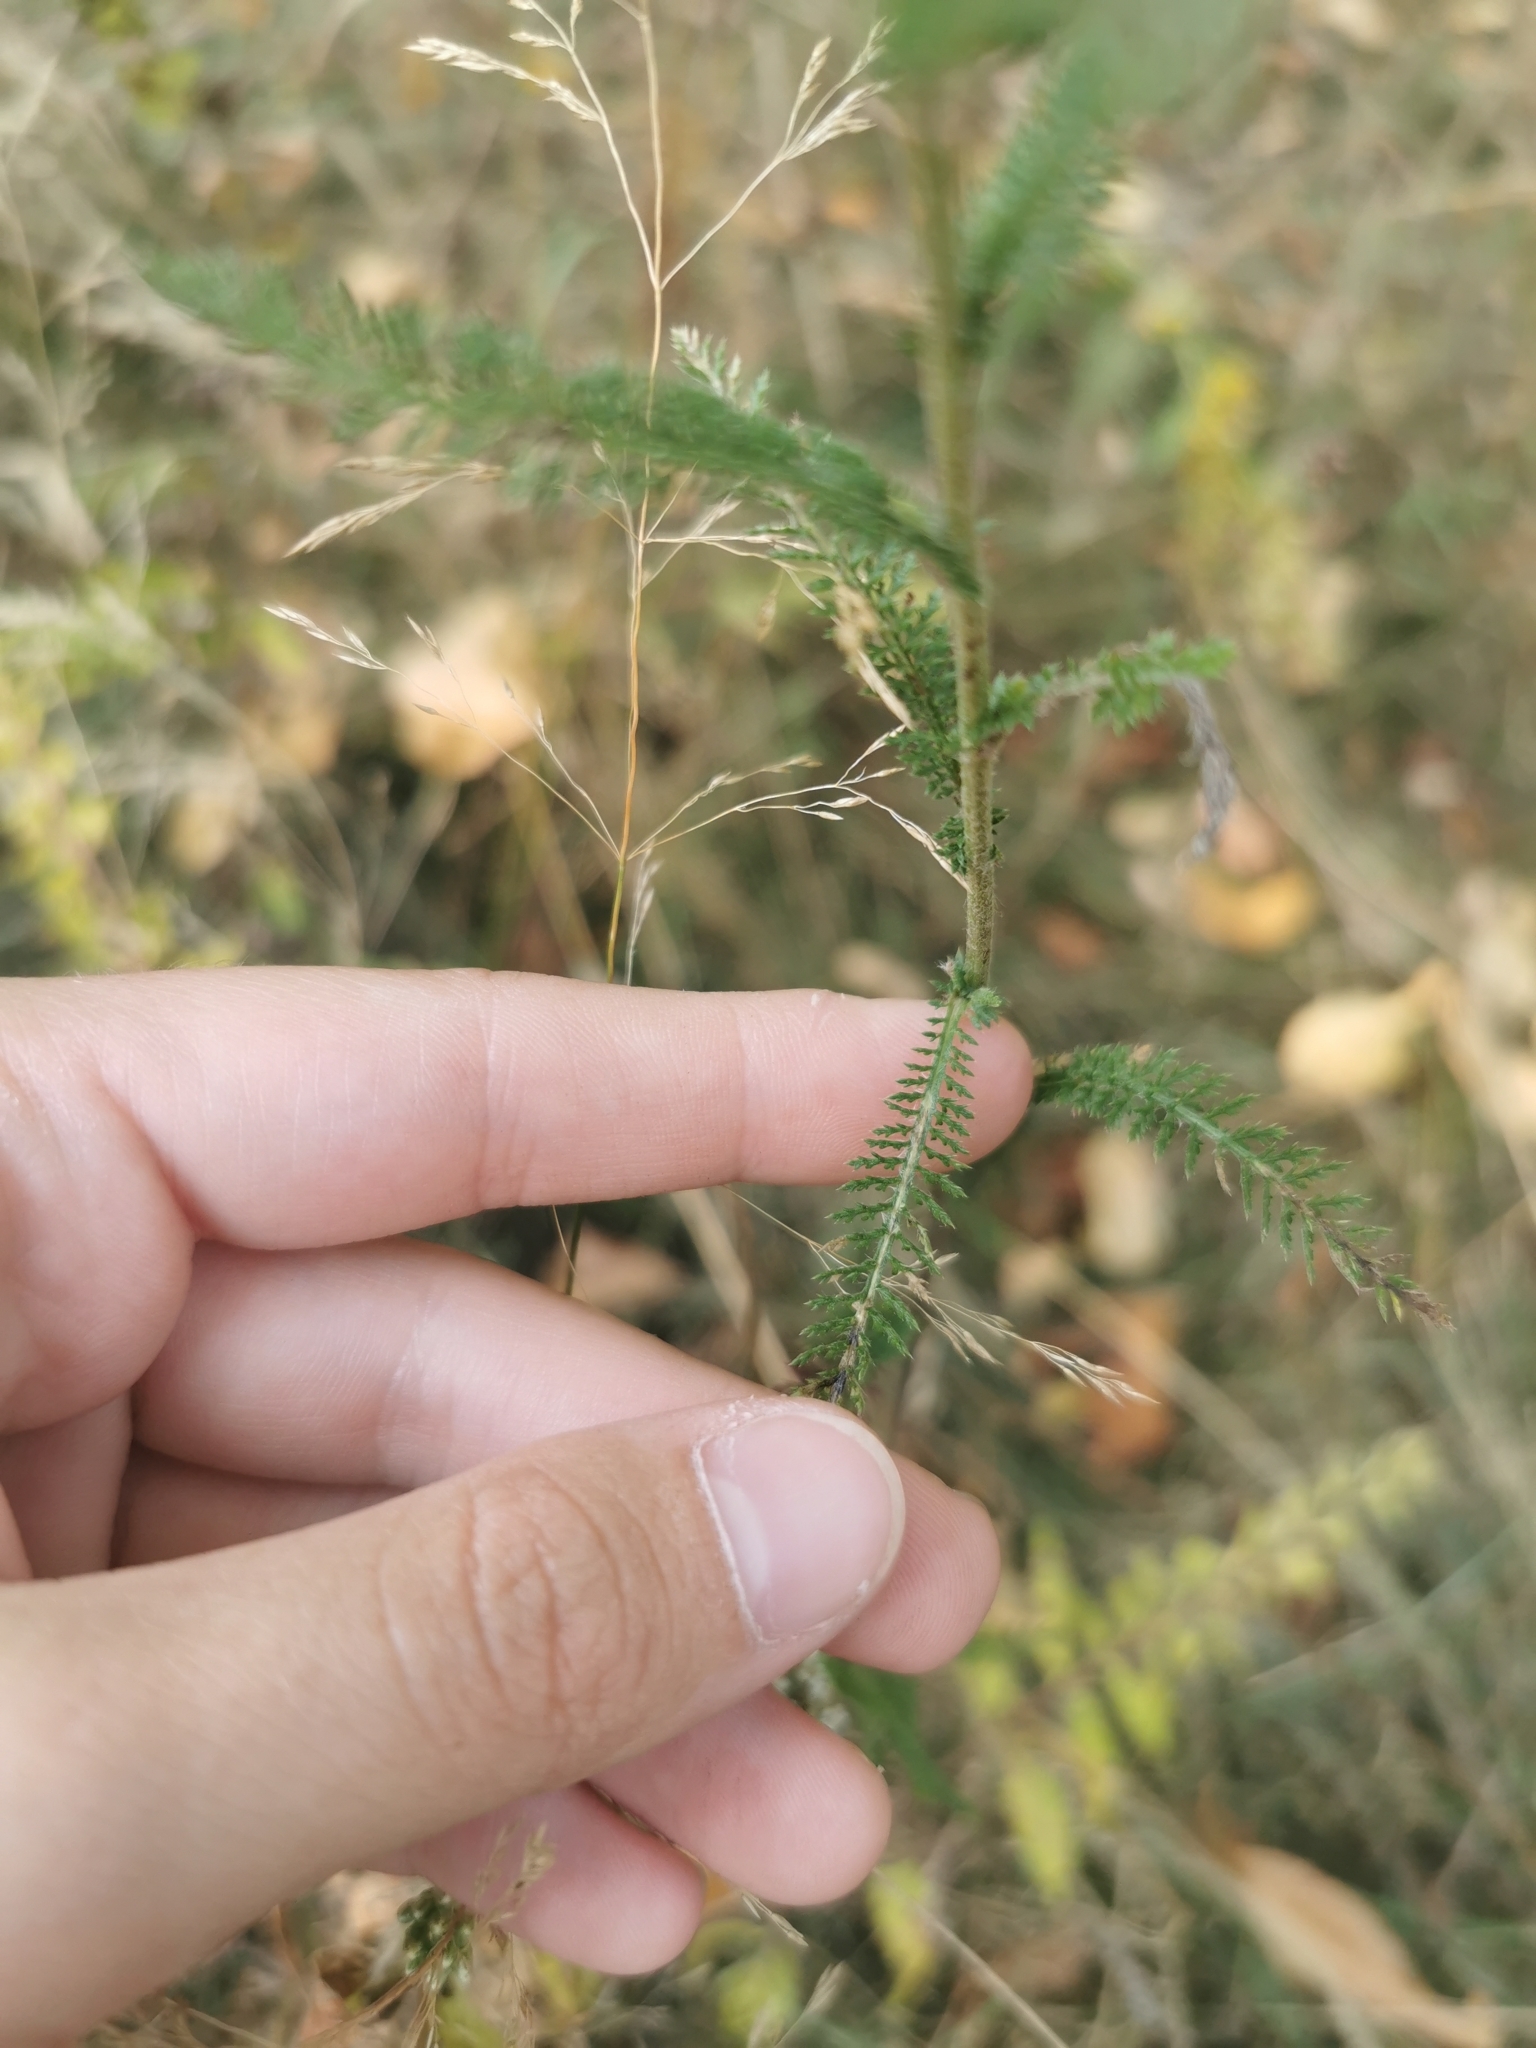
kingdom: Plantae
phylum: Tracheophyta
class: Magnoliopsida
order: Asterales
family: Asteraceae
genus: Achillea
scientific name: Achillea millefolium
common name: Yarrow
